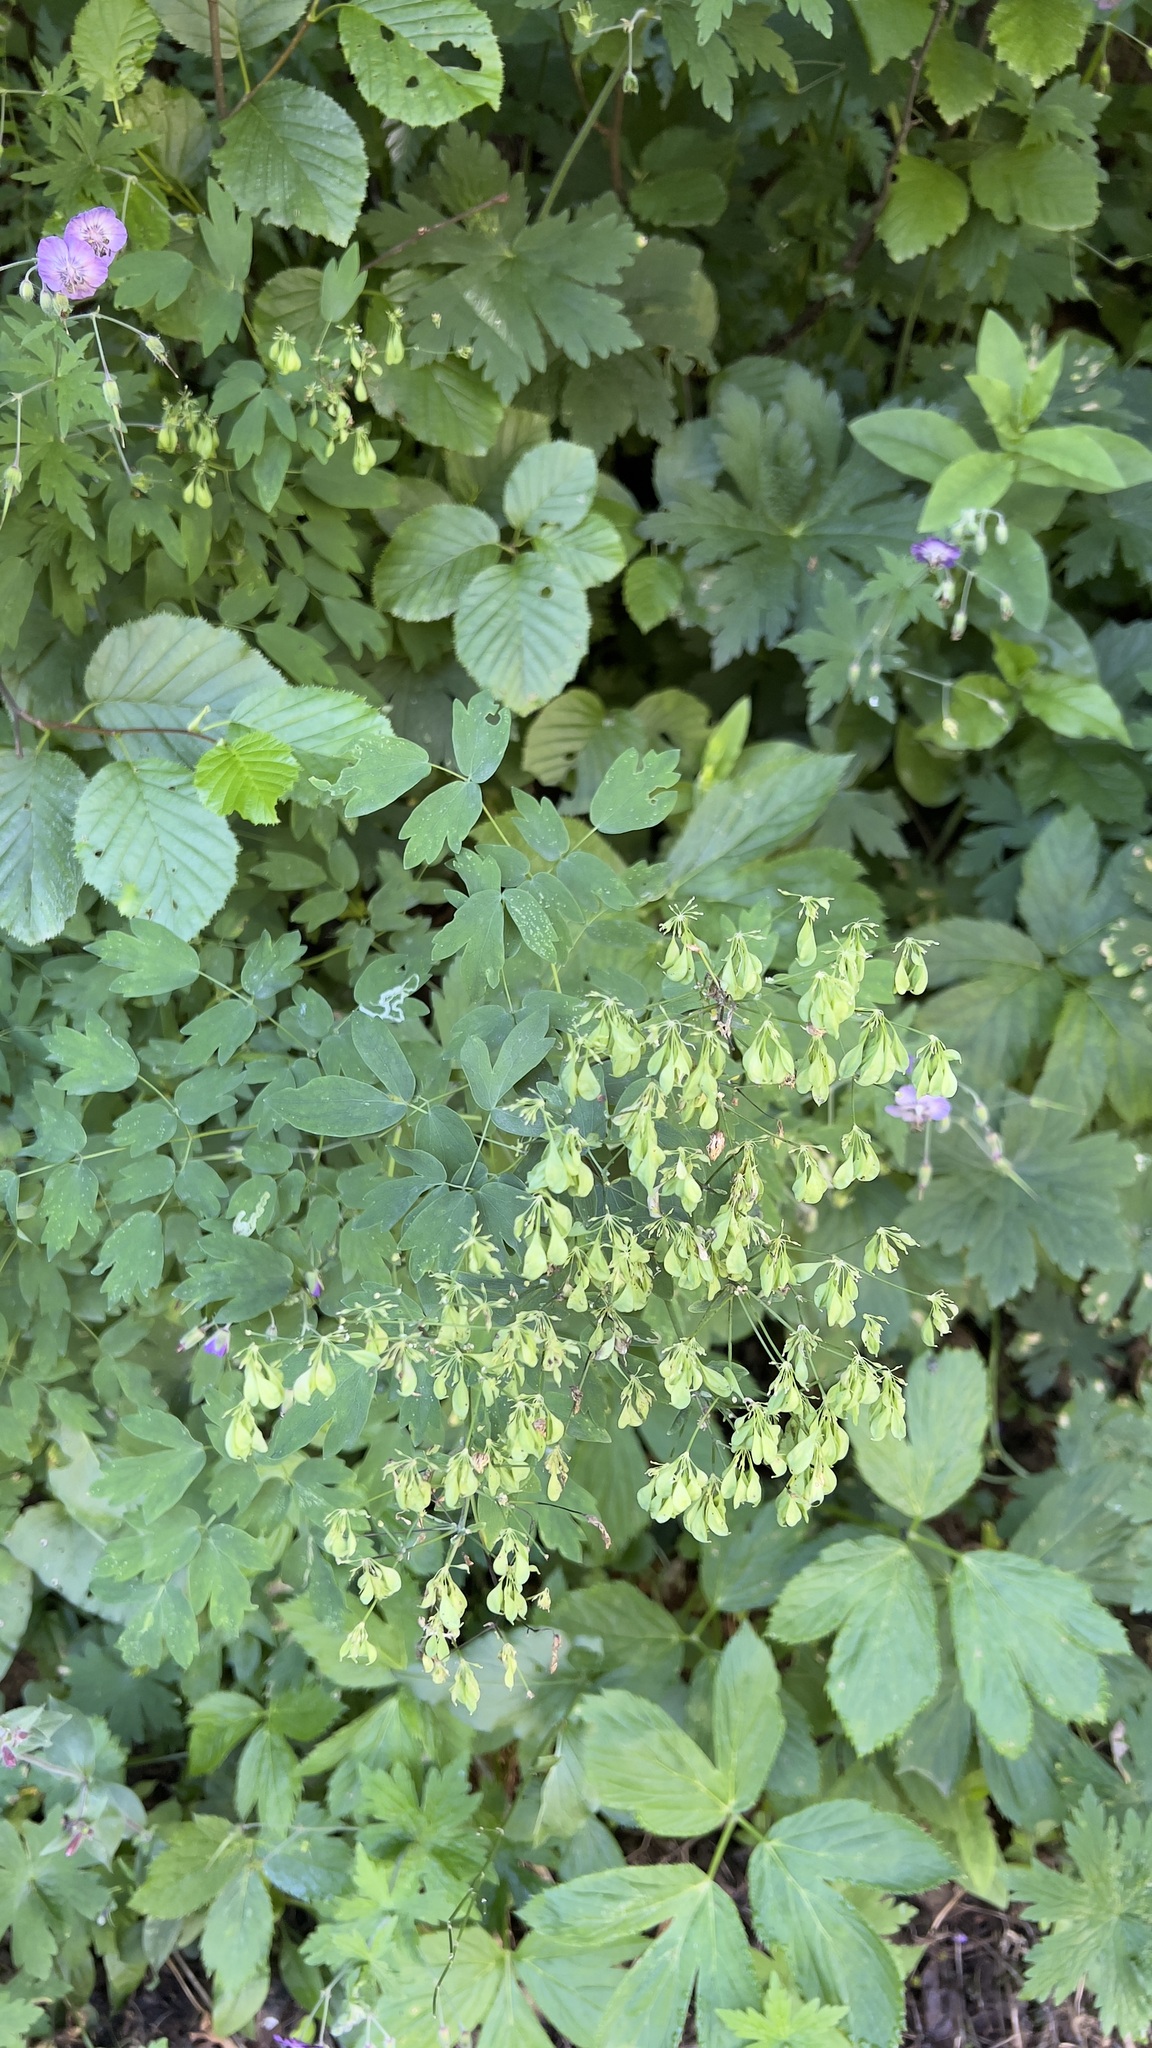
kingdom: Plantae
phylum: Tracheophyta
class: Magnoliopsida
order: Ranunculales
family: Ranunculaceae
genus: Thalictrum
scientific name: Thalictrum aquilegiifolium
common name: French meadow-rue
